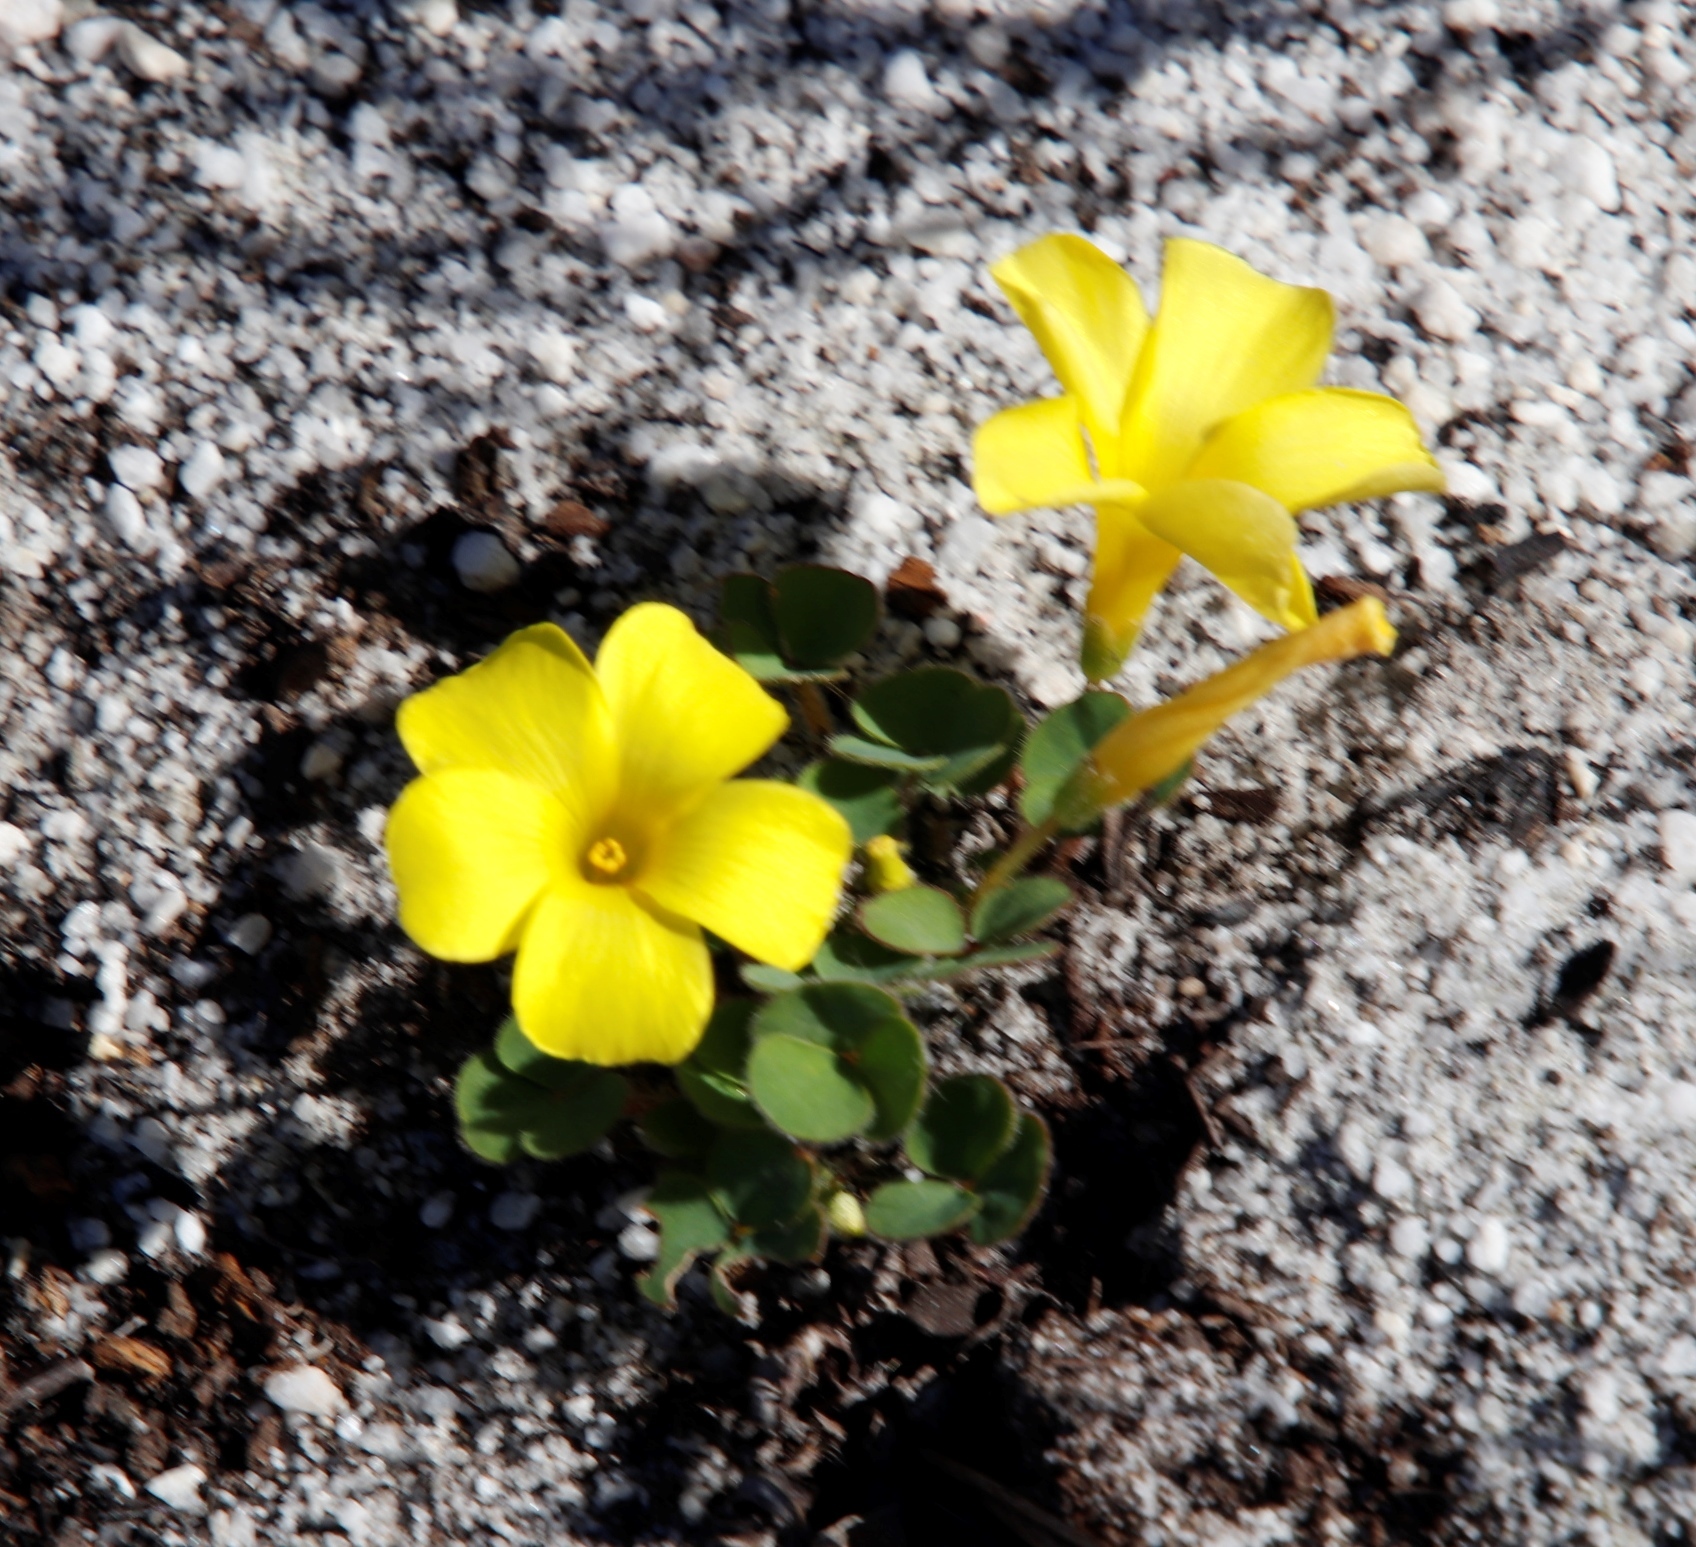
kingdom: Plantae
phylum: Tracheophyta
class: Magnoliopsida
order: Oxalidales
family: Oxalidaceae
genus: Oxalis
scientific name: Oxalis luteola
